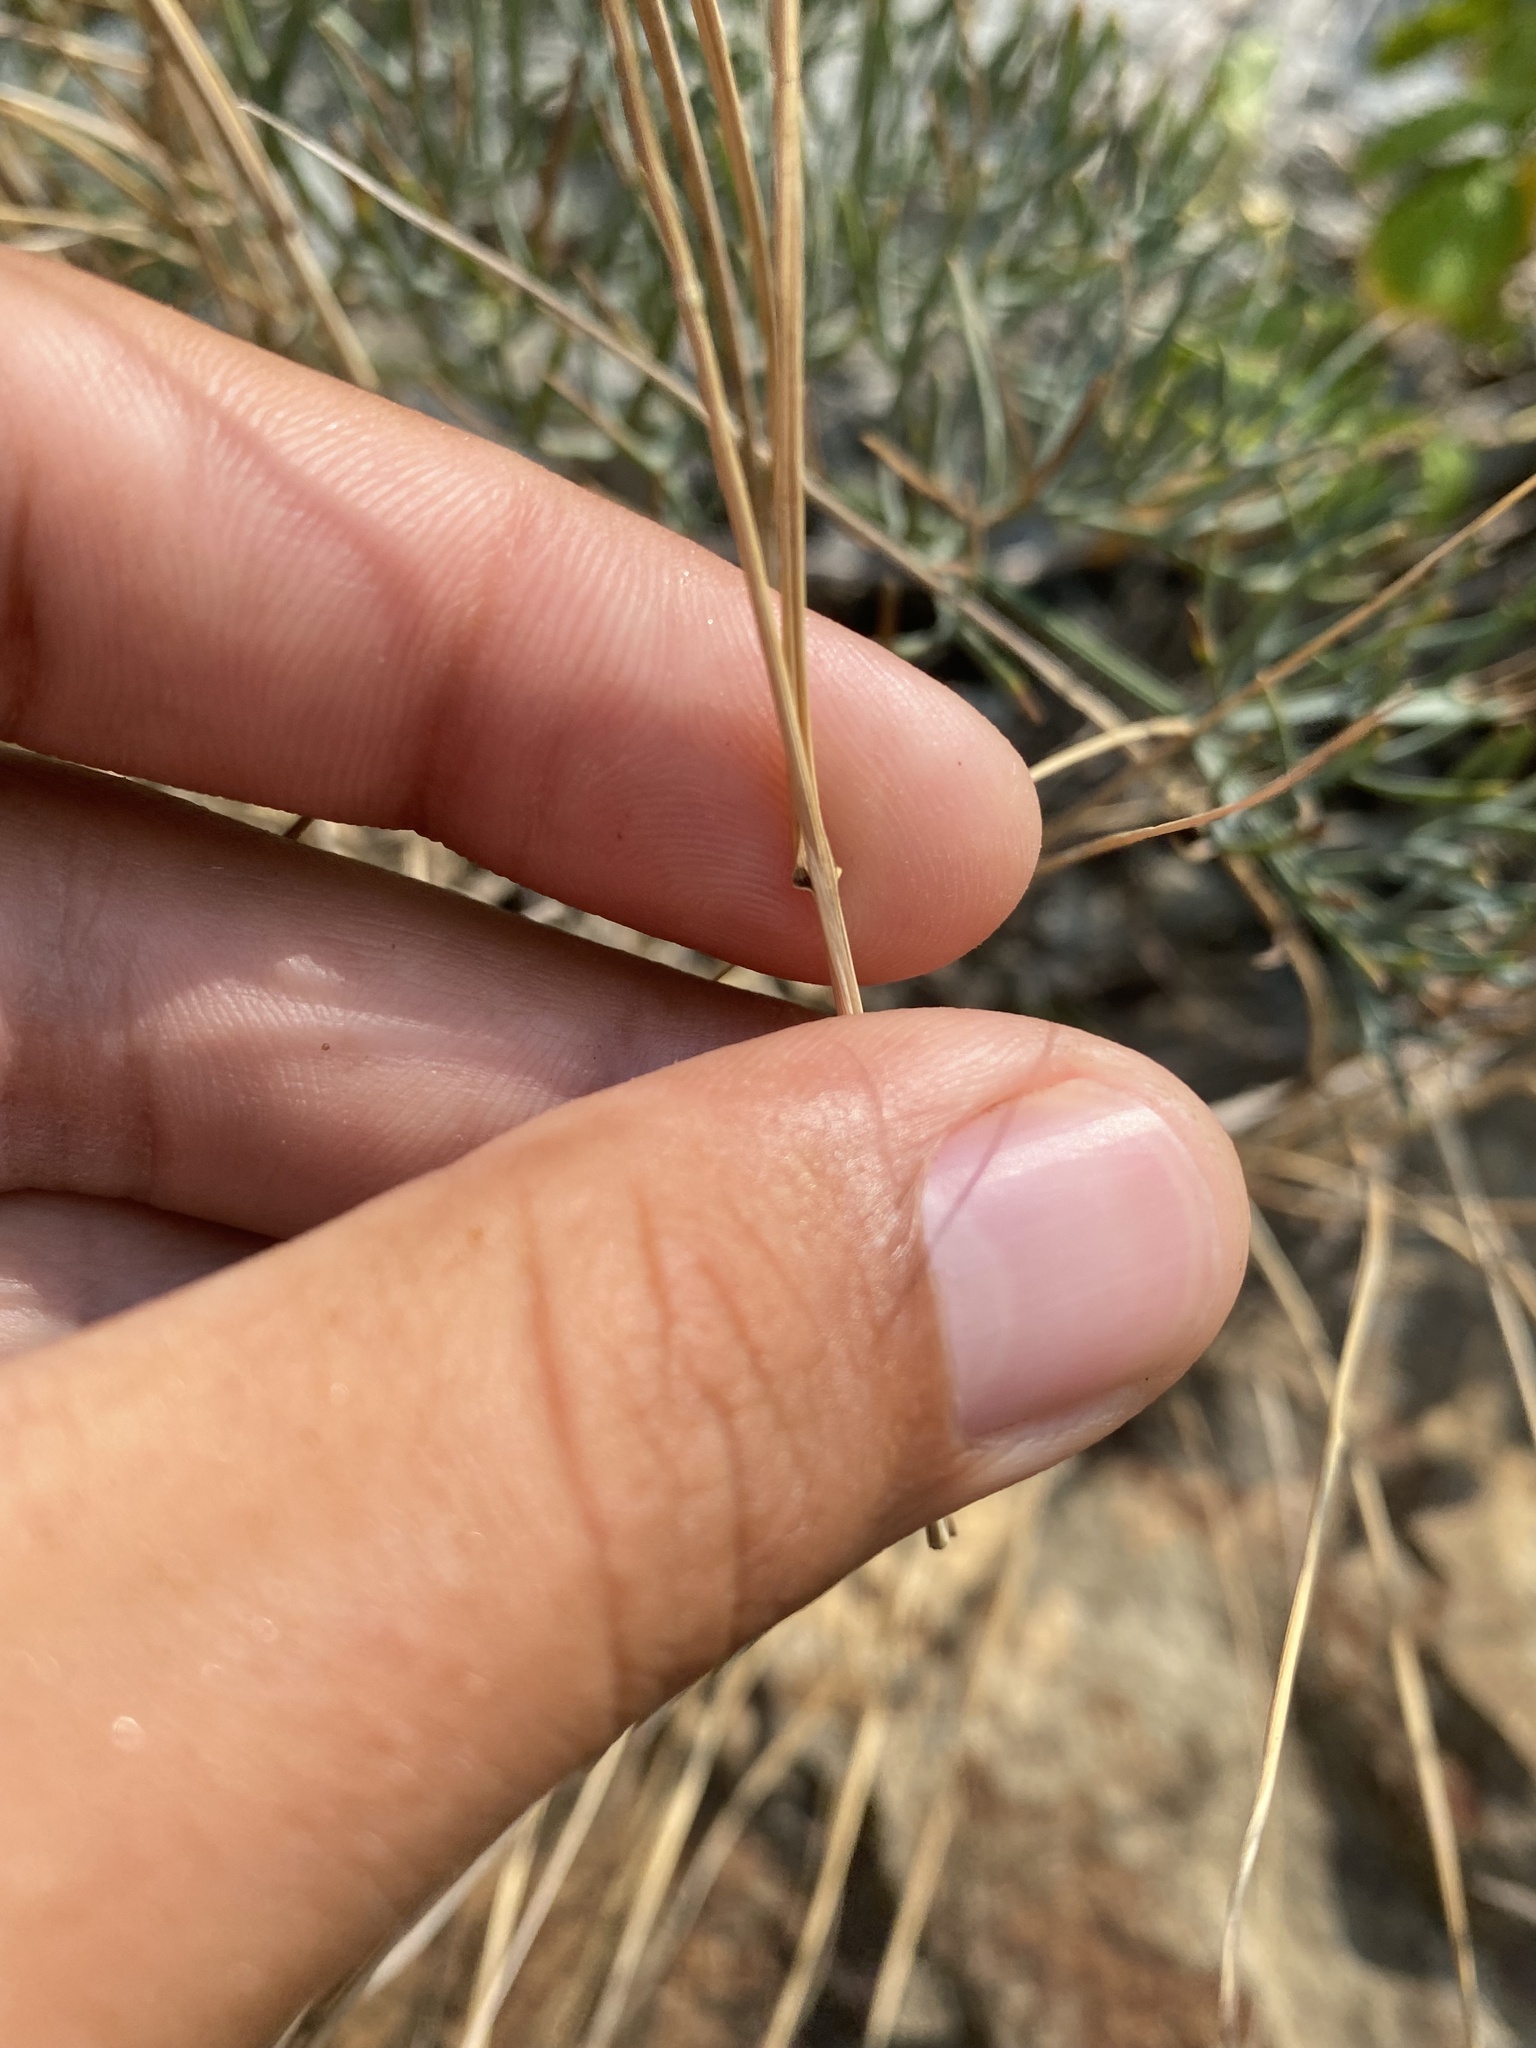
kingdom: Plantae
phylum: Tracheophyta
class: Liliopsida
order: Poales
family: Poaceae
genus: Melica
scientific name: Melica transsilvanica
